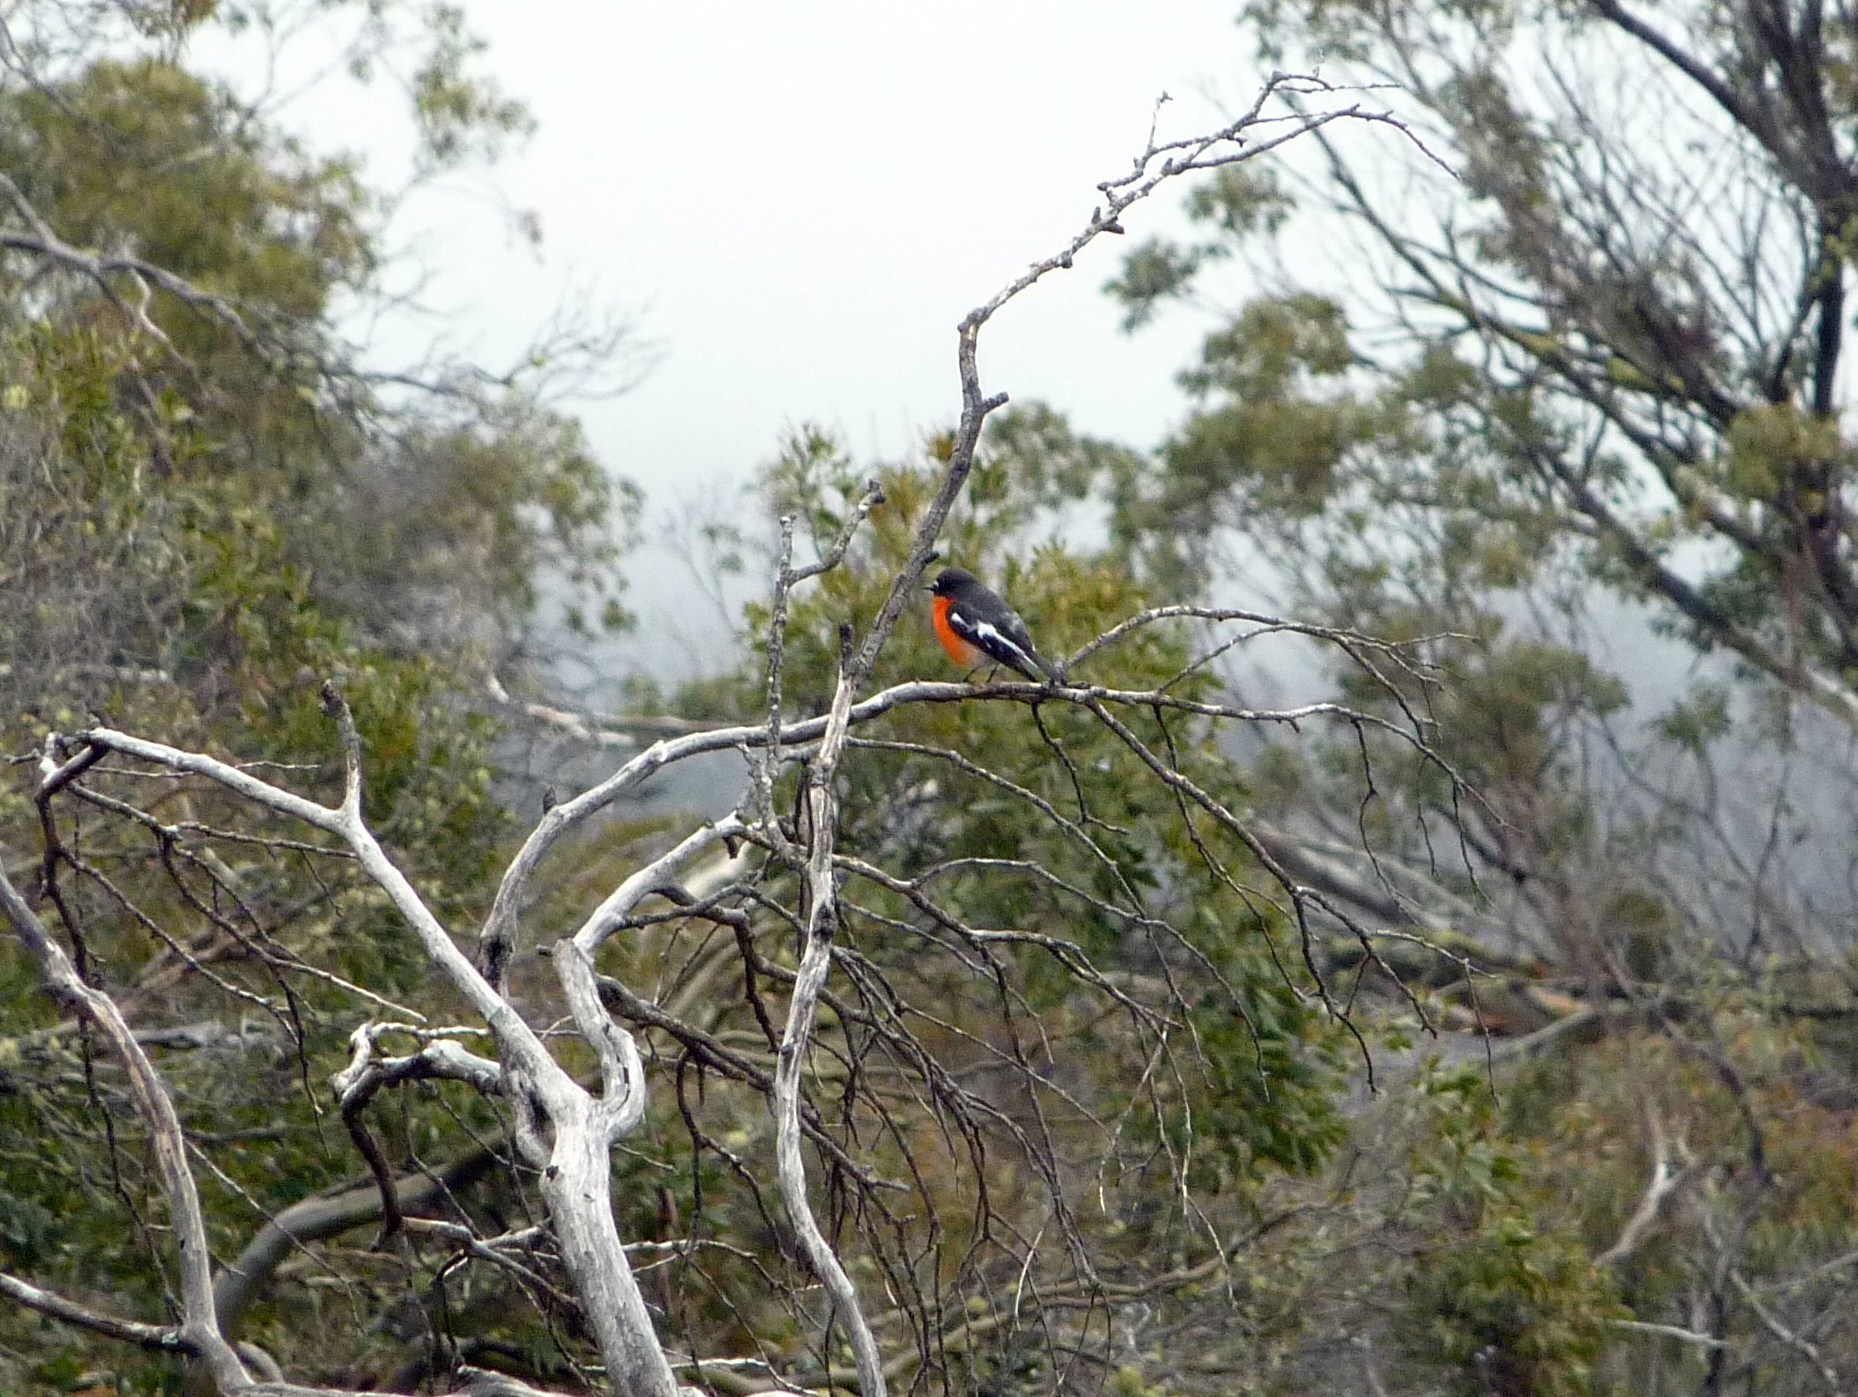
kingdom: Animalia
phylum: Chordata
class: Aves
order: Passeriformes
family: Petroicidae
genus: Petroica
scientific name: Petroica phoenicea
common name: Flame robin
